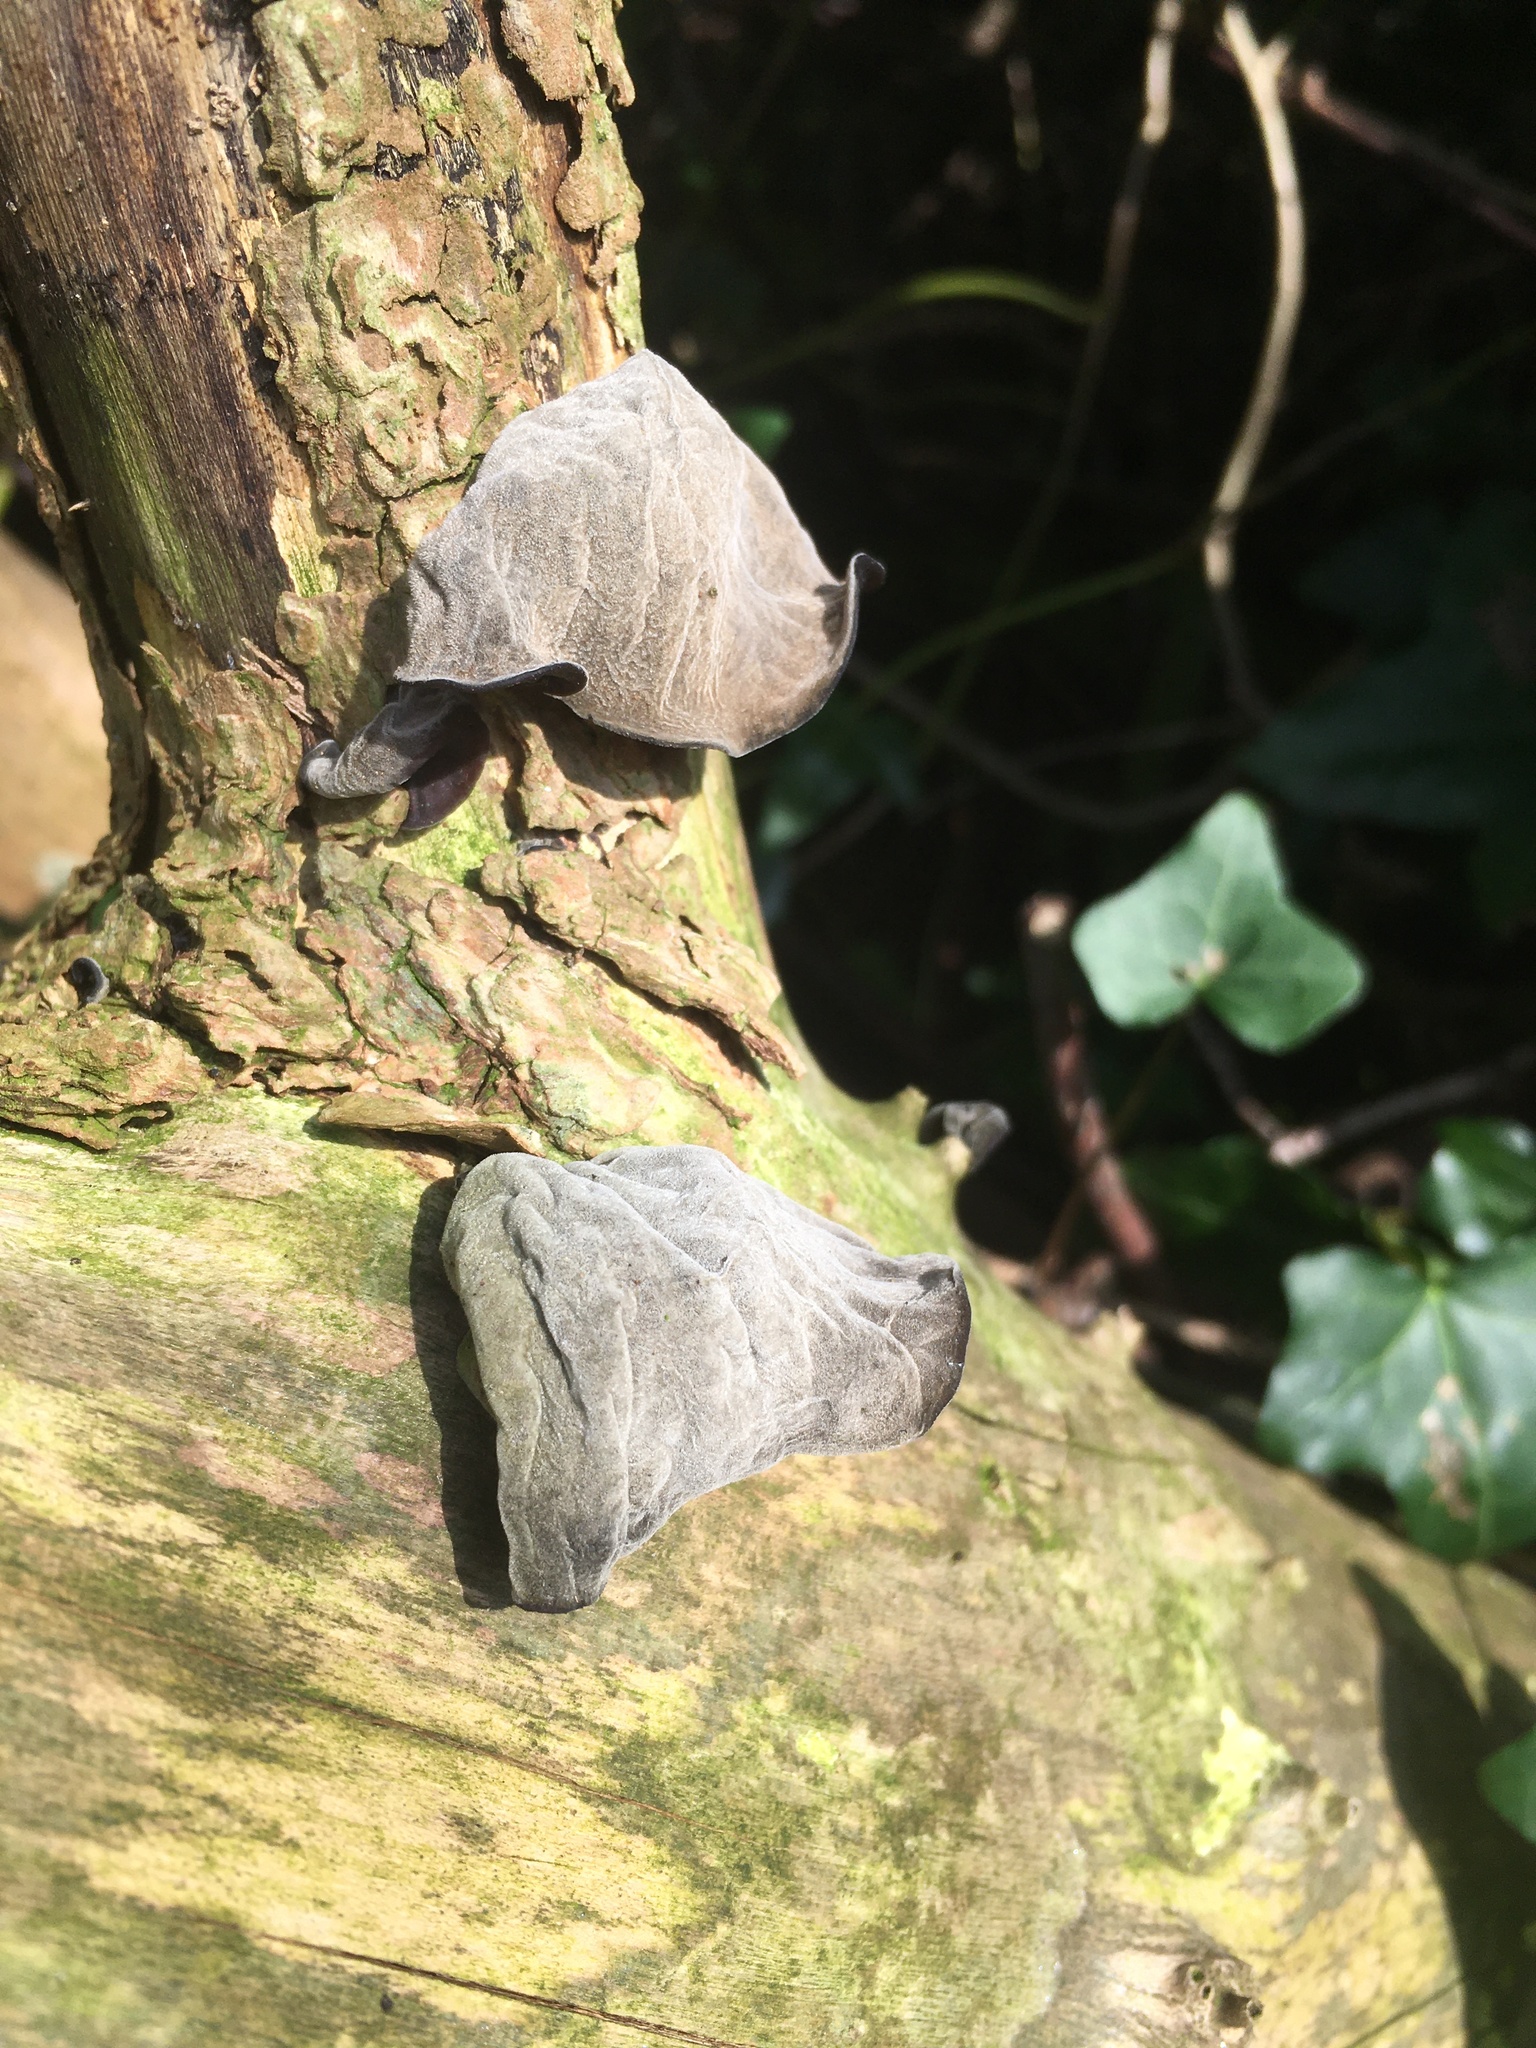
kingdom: Fungi
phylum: Basidiomycota
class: Agaricomycetes
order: Auriculariales
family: Auriculariaceae
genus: Auricularia
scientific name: Auricularia auricula-judae
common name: Jelly ear
